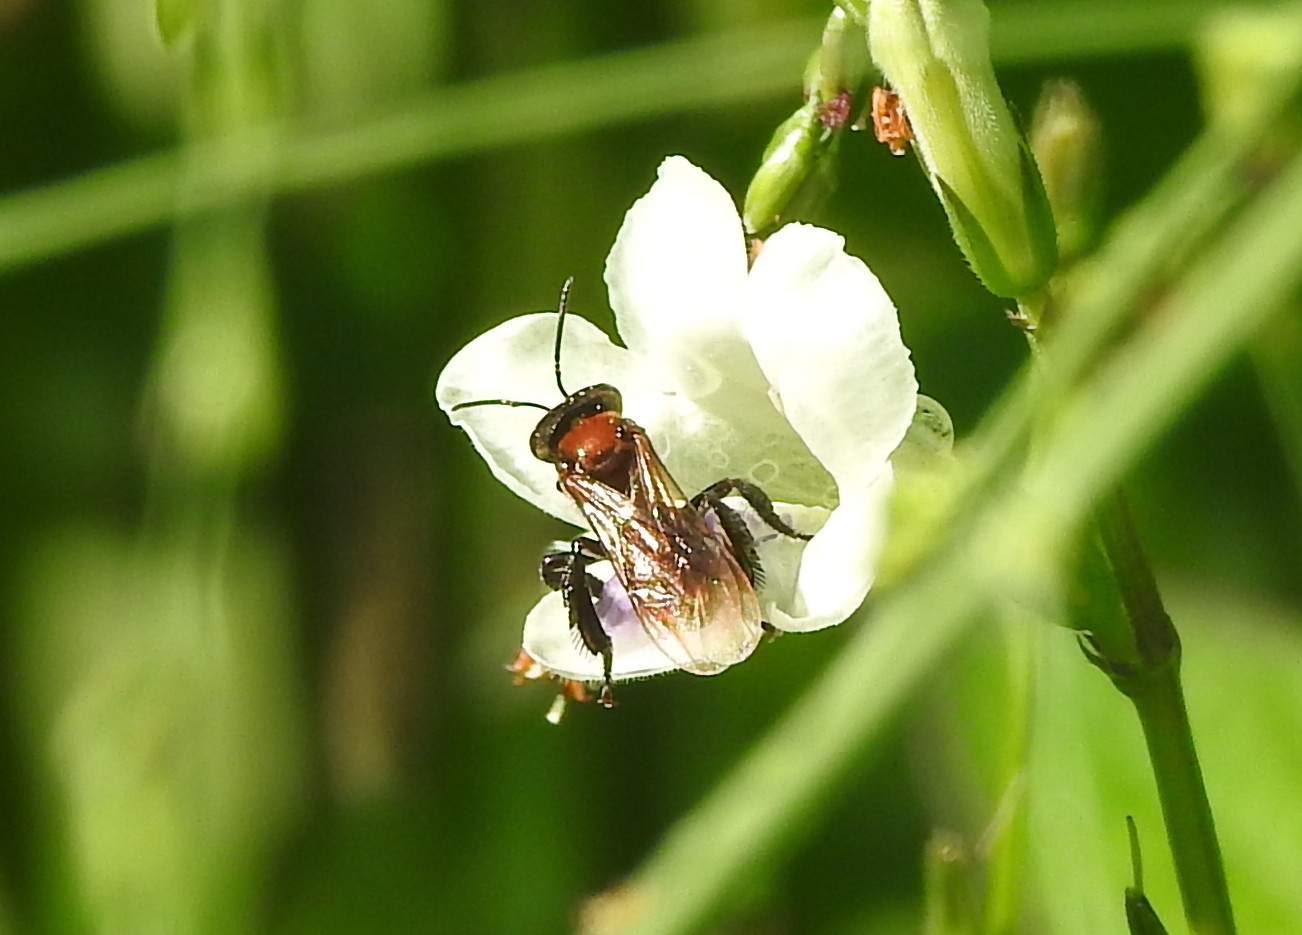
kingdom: Animalia
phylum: Arthropoda
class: Insecta
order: Hymenoptera
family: Apidae
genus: Geniotrigona
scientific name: Geniotrigona thoracica
